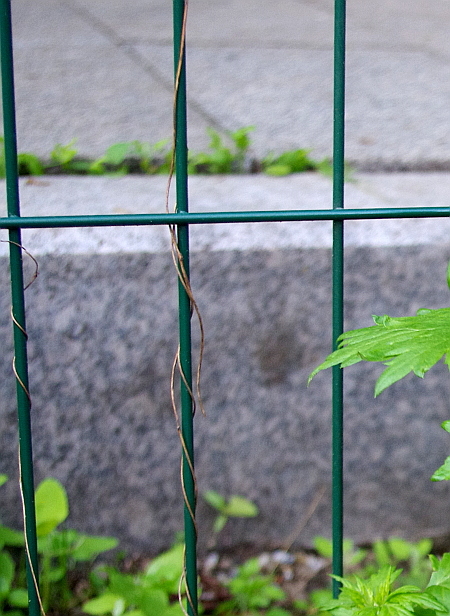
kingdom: Plantae
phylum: Tracheophyta
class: Magnoliopsida
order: Caryophyllales
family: Polygonaceae
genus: Fallopia
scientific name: Fallopia dumetorum
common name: Copse-bindweed
